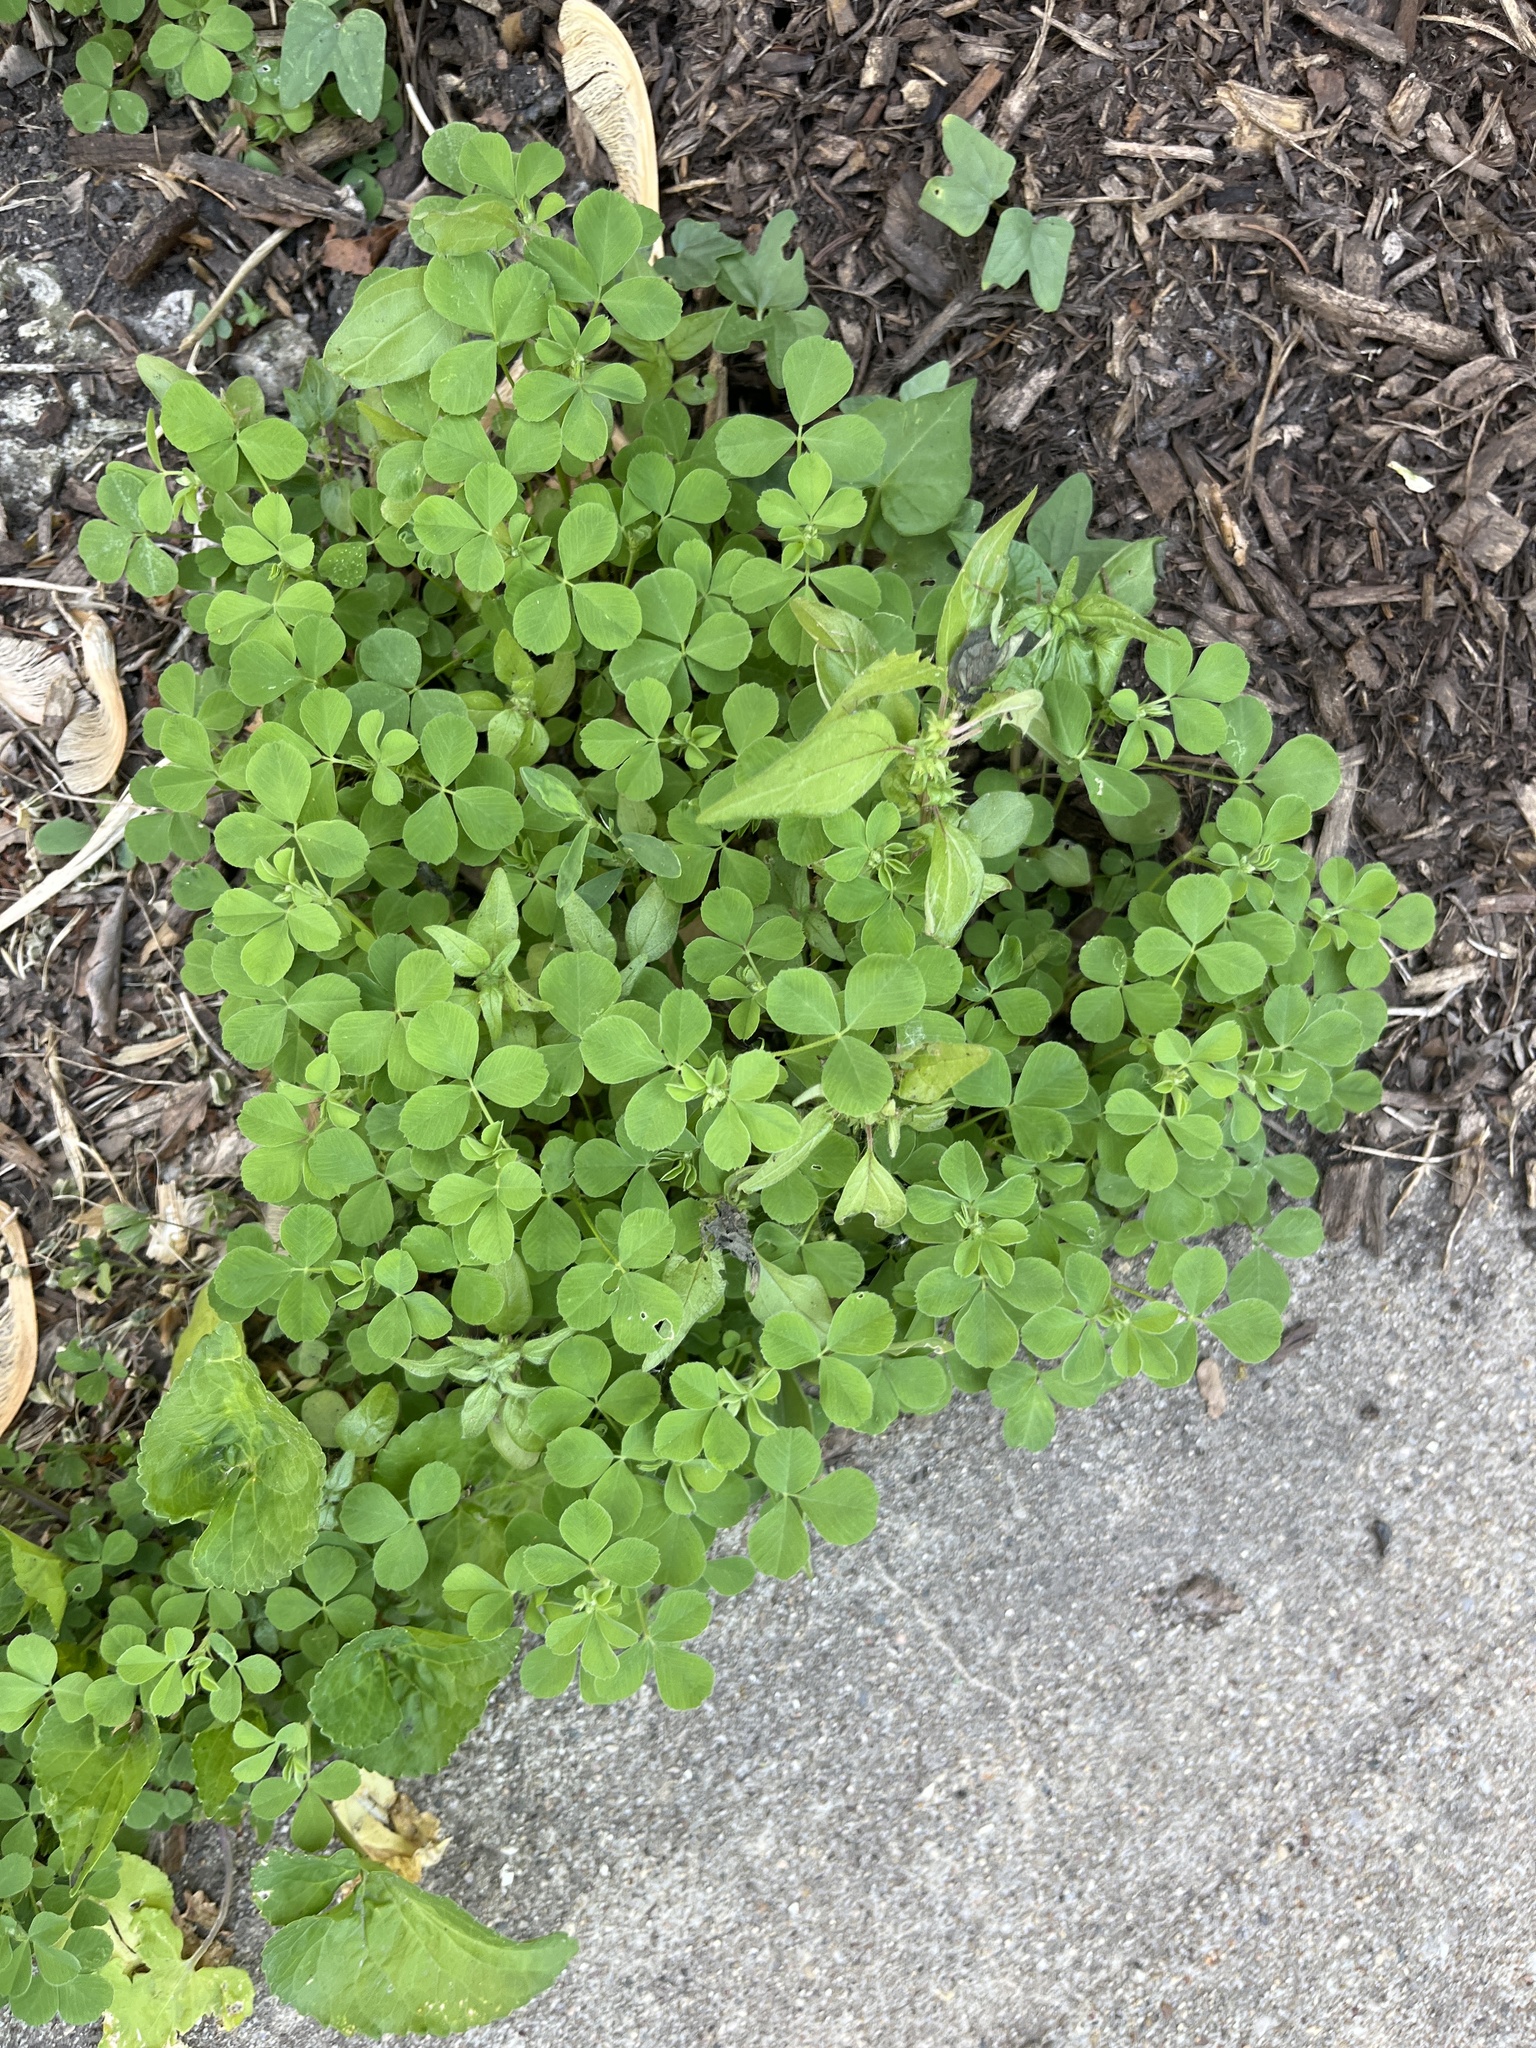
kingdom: Plantae
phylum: Tracheophyta
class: Magnoliopsida
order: Fabales
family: Fabaceae
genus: Medicago
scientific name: Medicago lupulina
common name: Black medick
